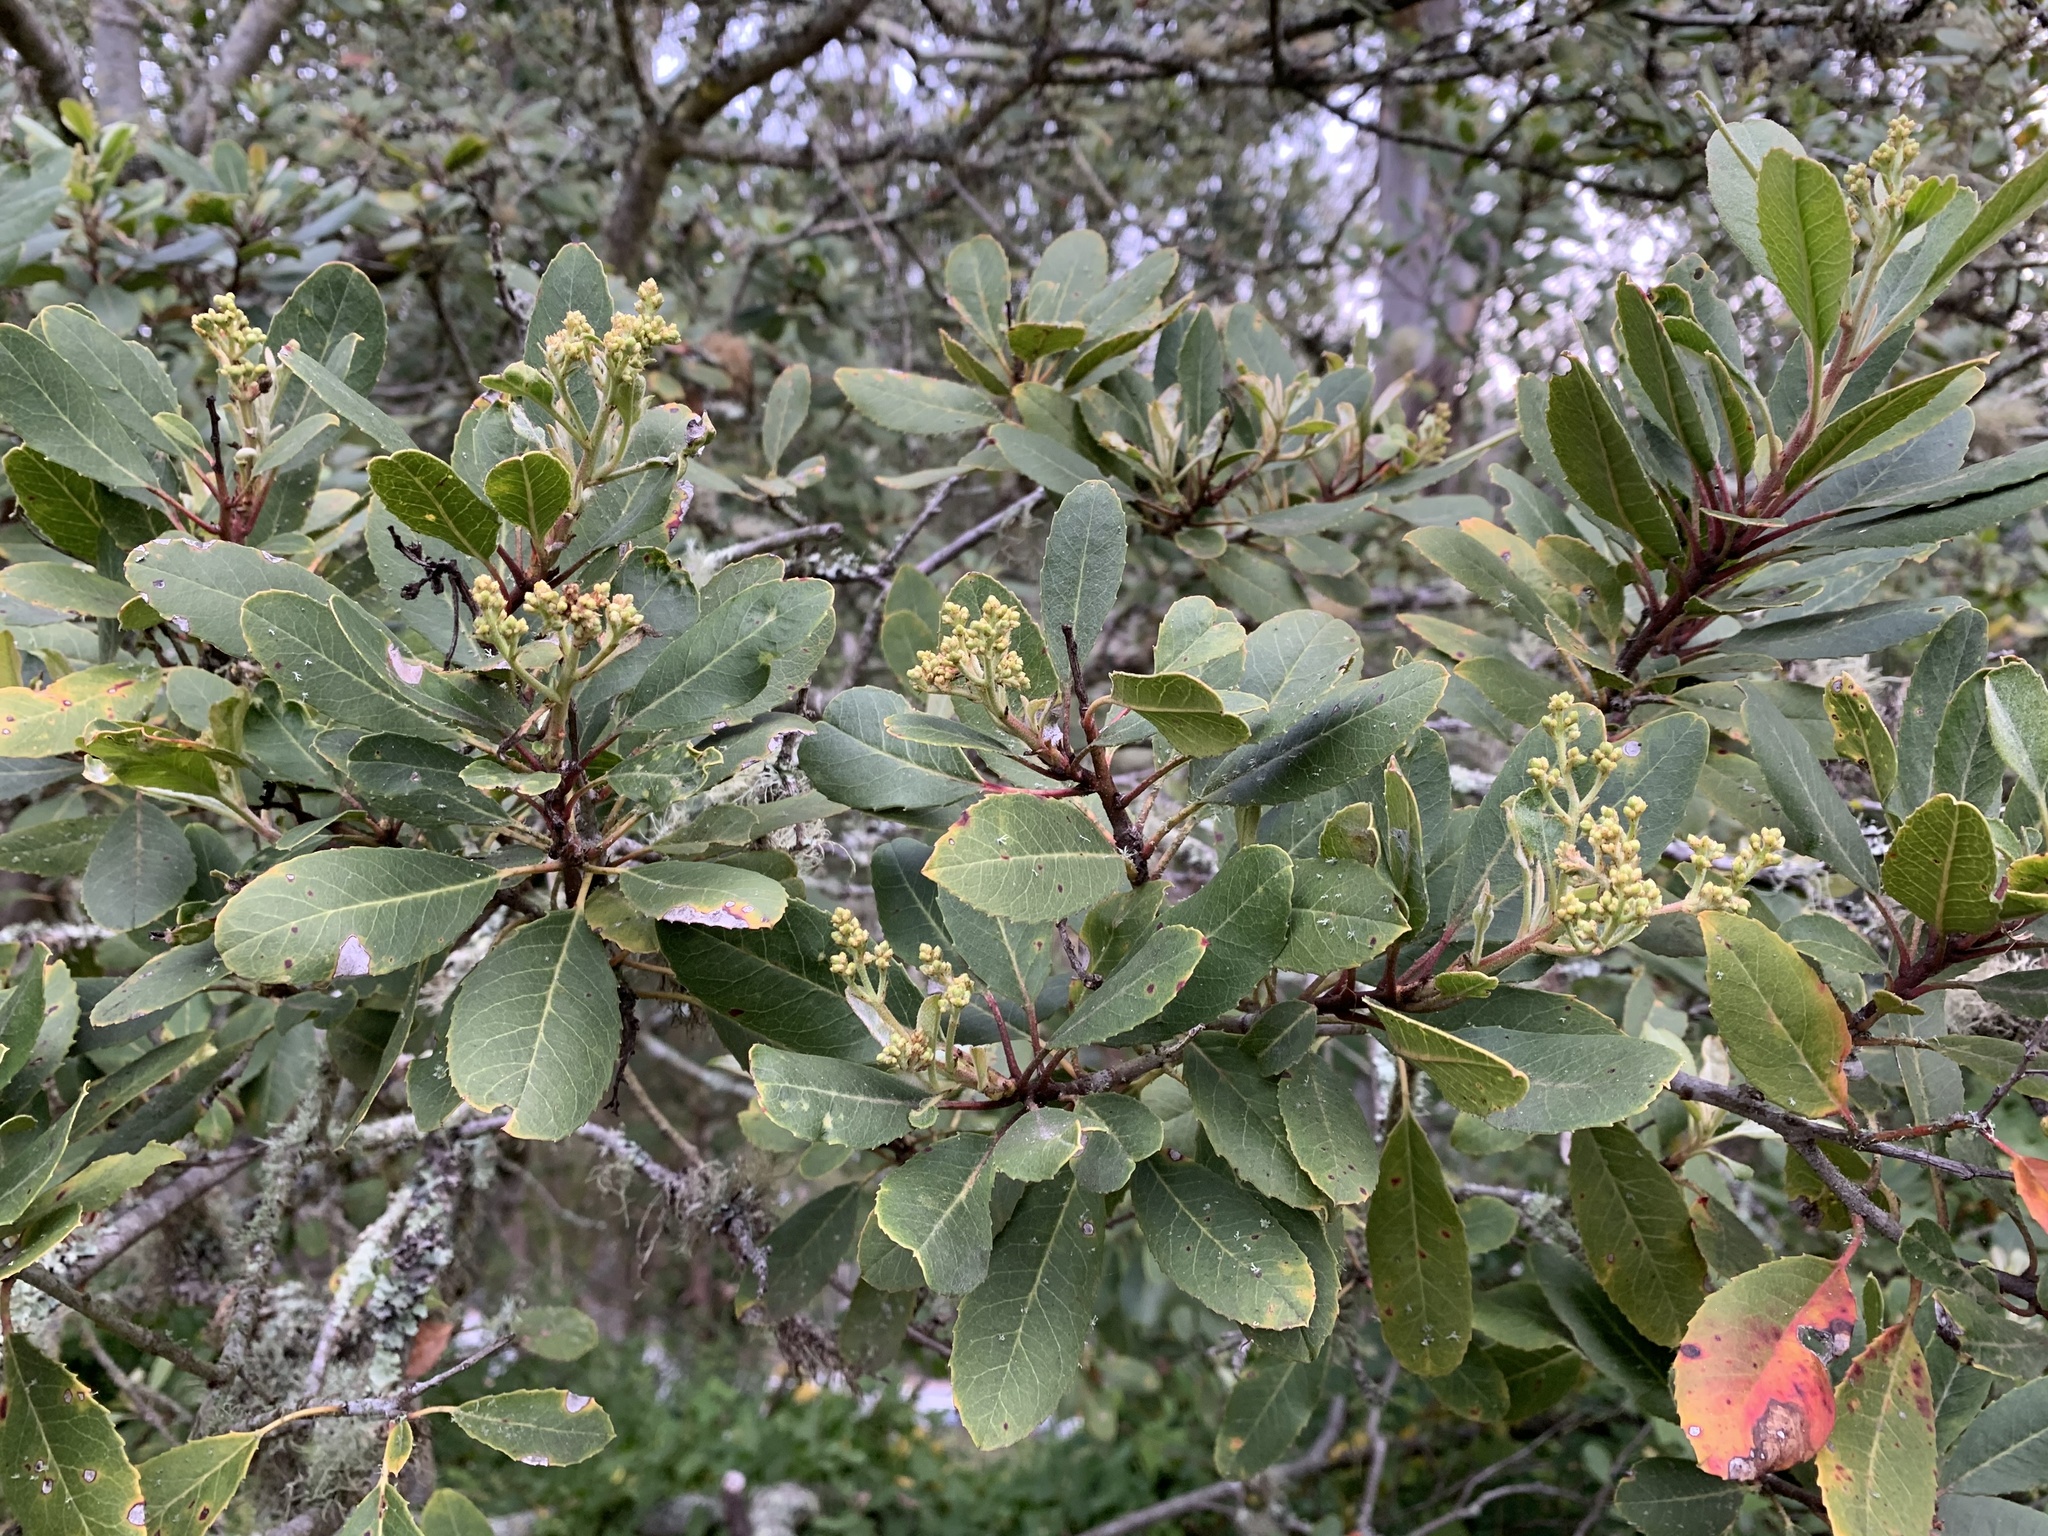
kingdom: Plantae
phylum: Tracheophyta
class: Magnoliopsida
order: Rosales
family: Rosaceae
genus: Heteromeles
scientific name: Heteromeles arbutifolia
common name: California-holly
